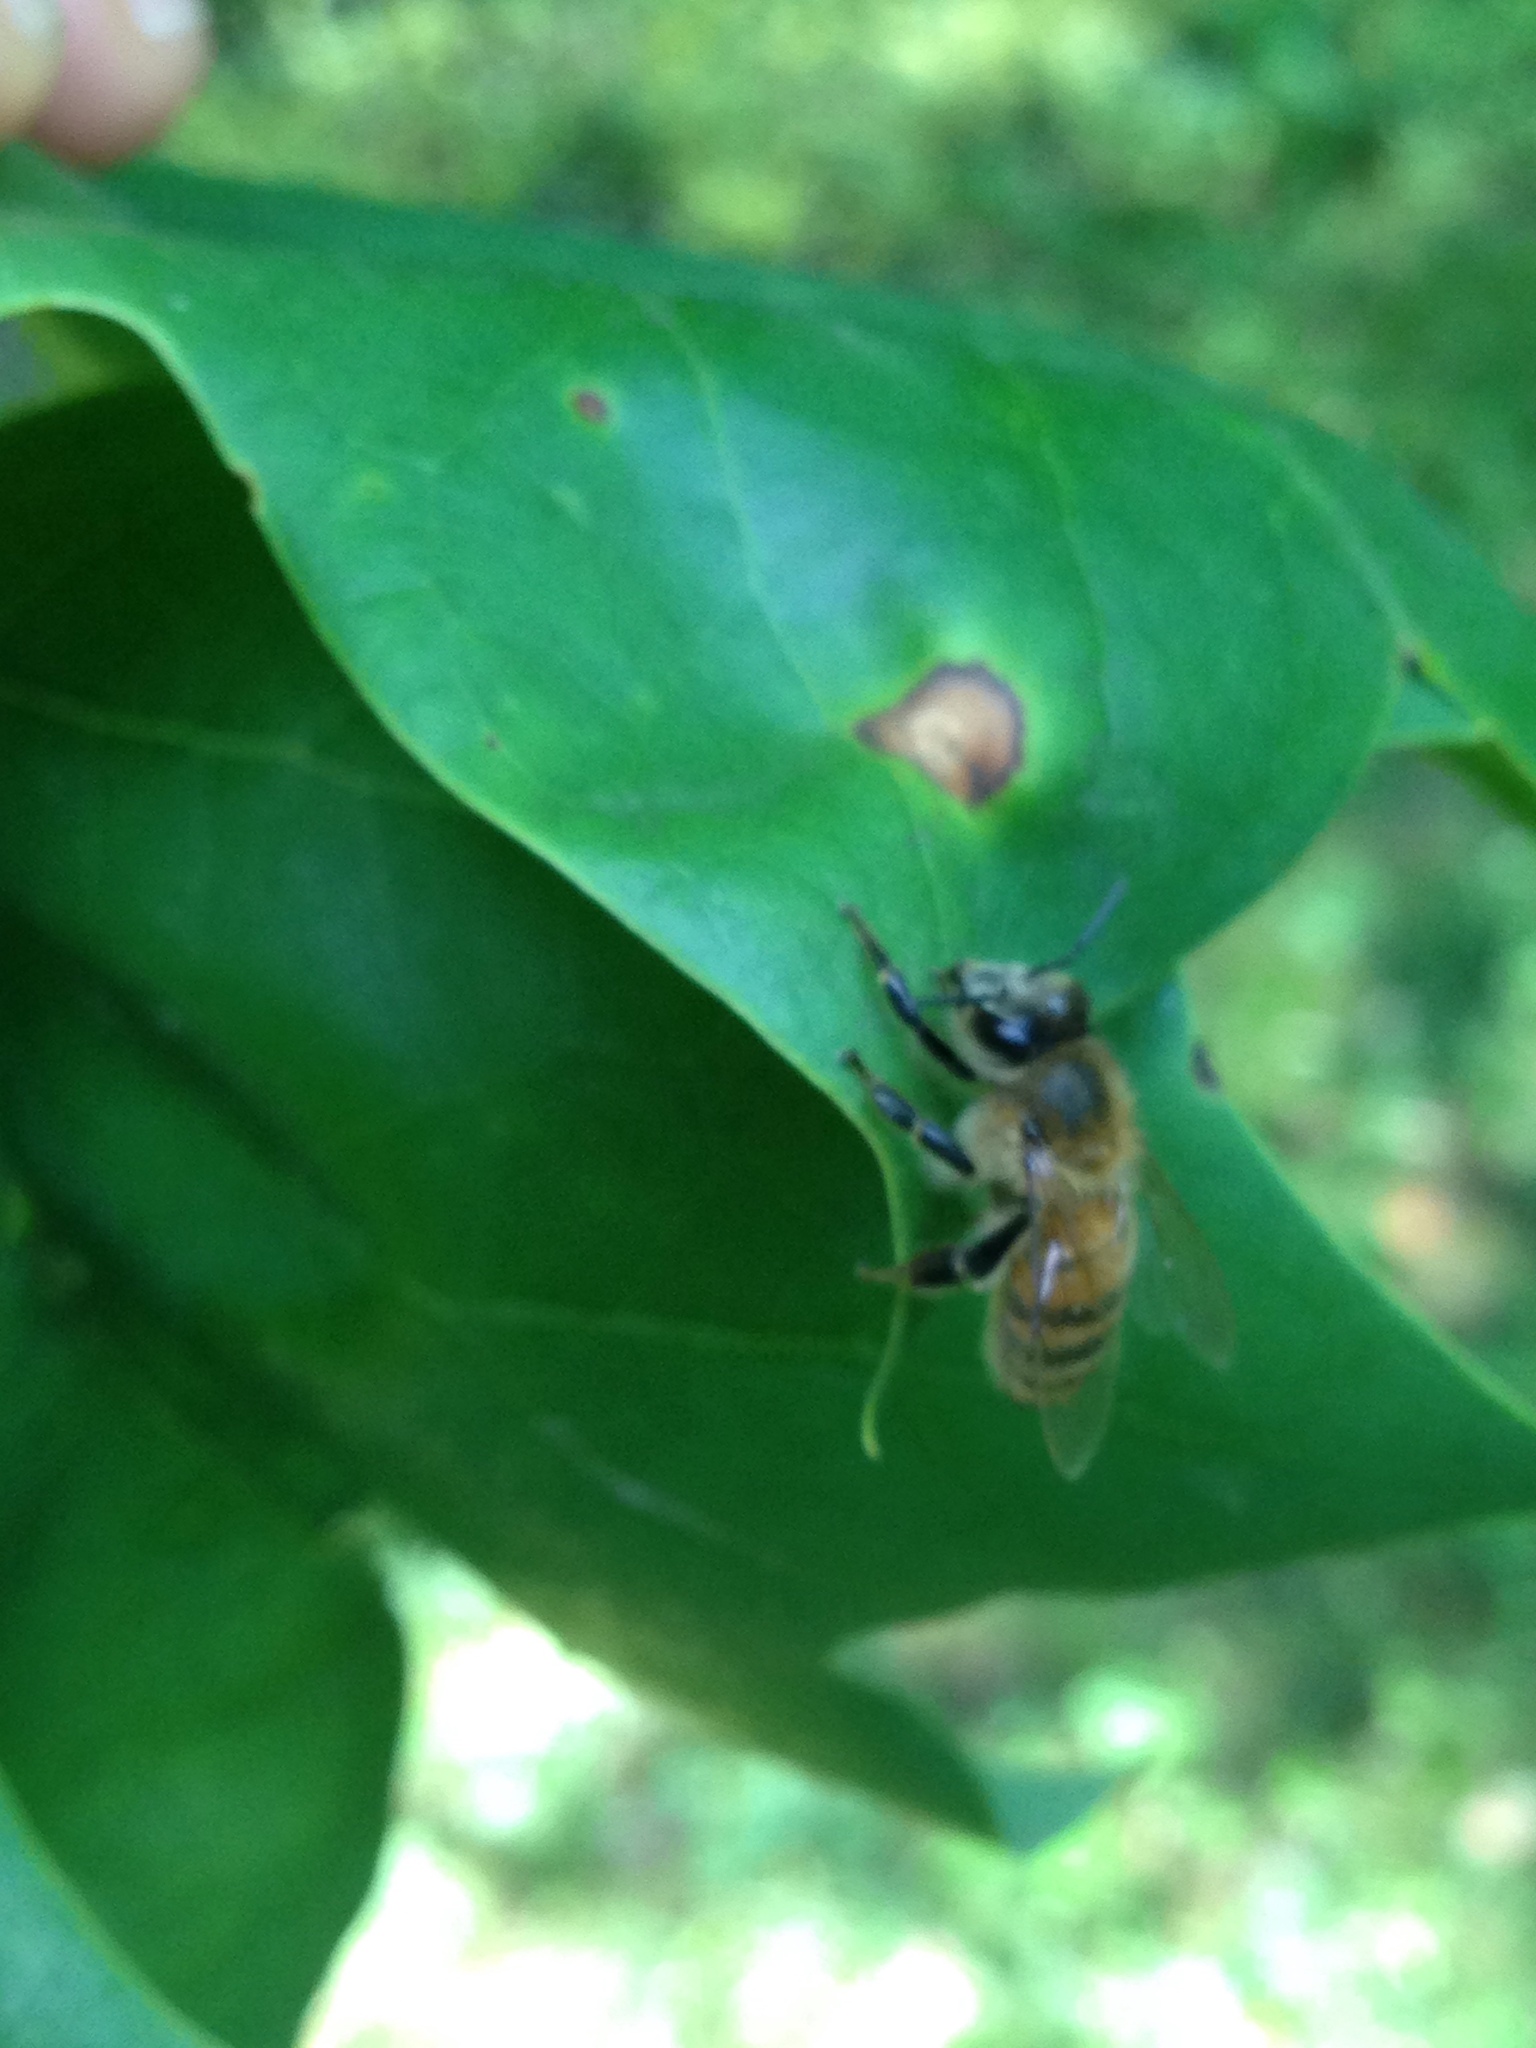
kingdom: Animalia
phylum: Arthropoda
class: Insecta
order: Hymenoptera
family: Apidae
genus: Apis
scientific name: Apis mellifera
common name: Honey bee
